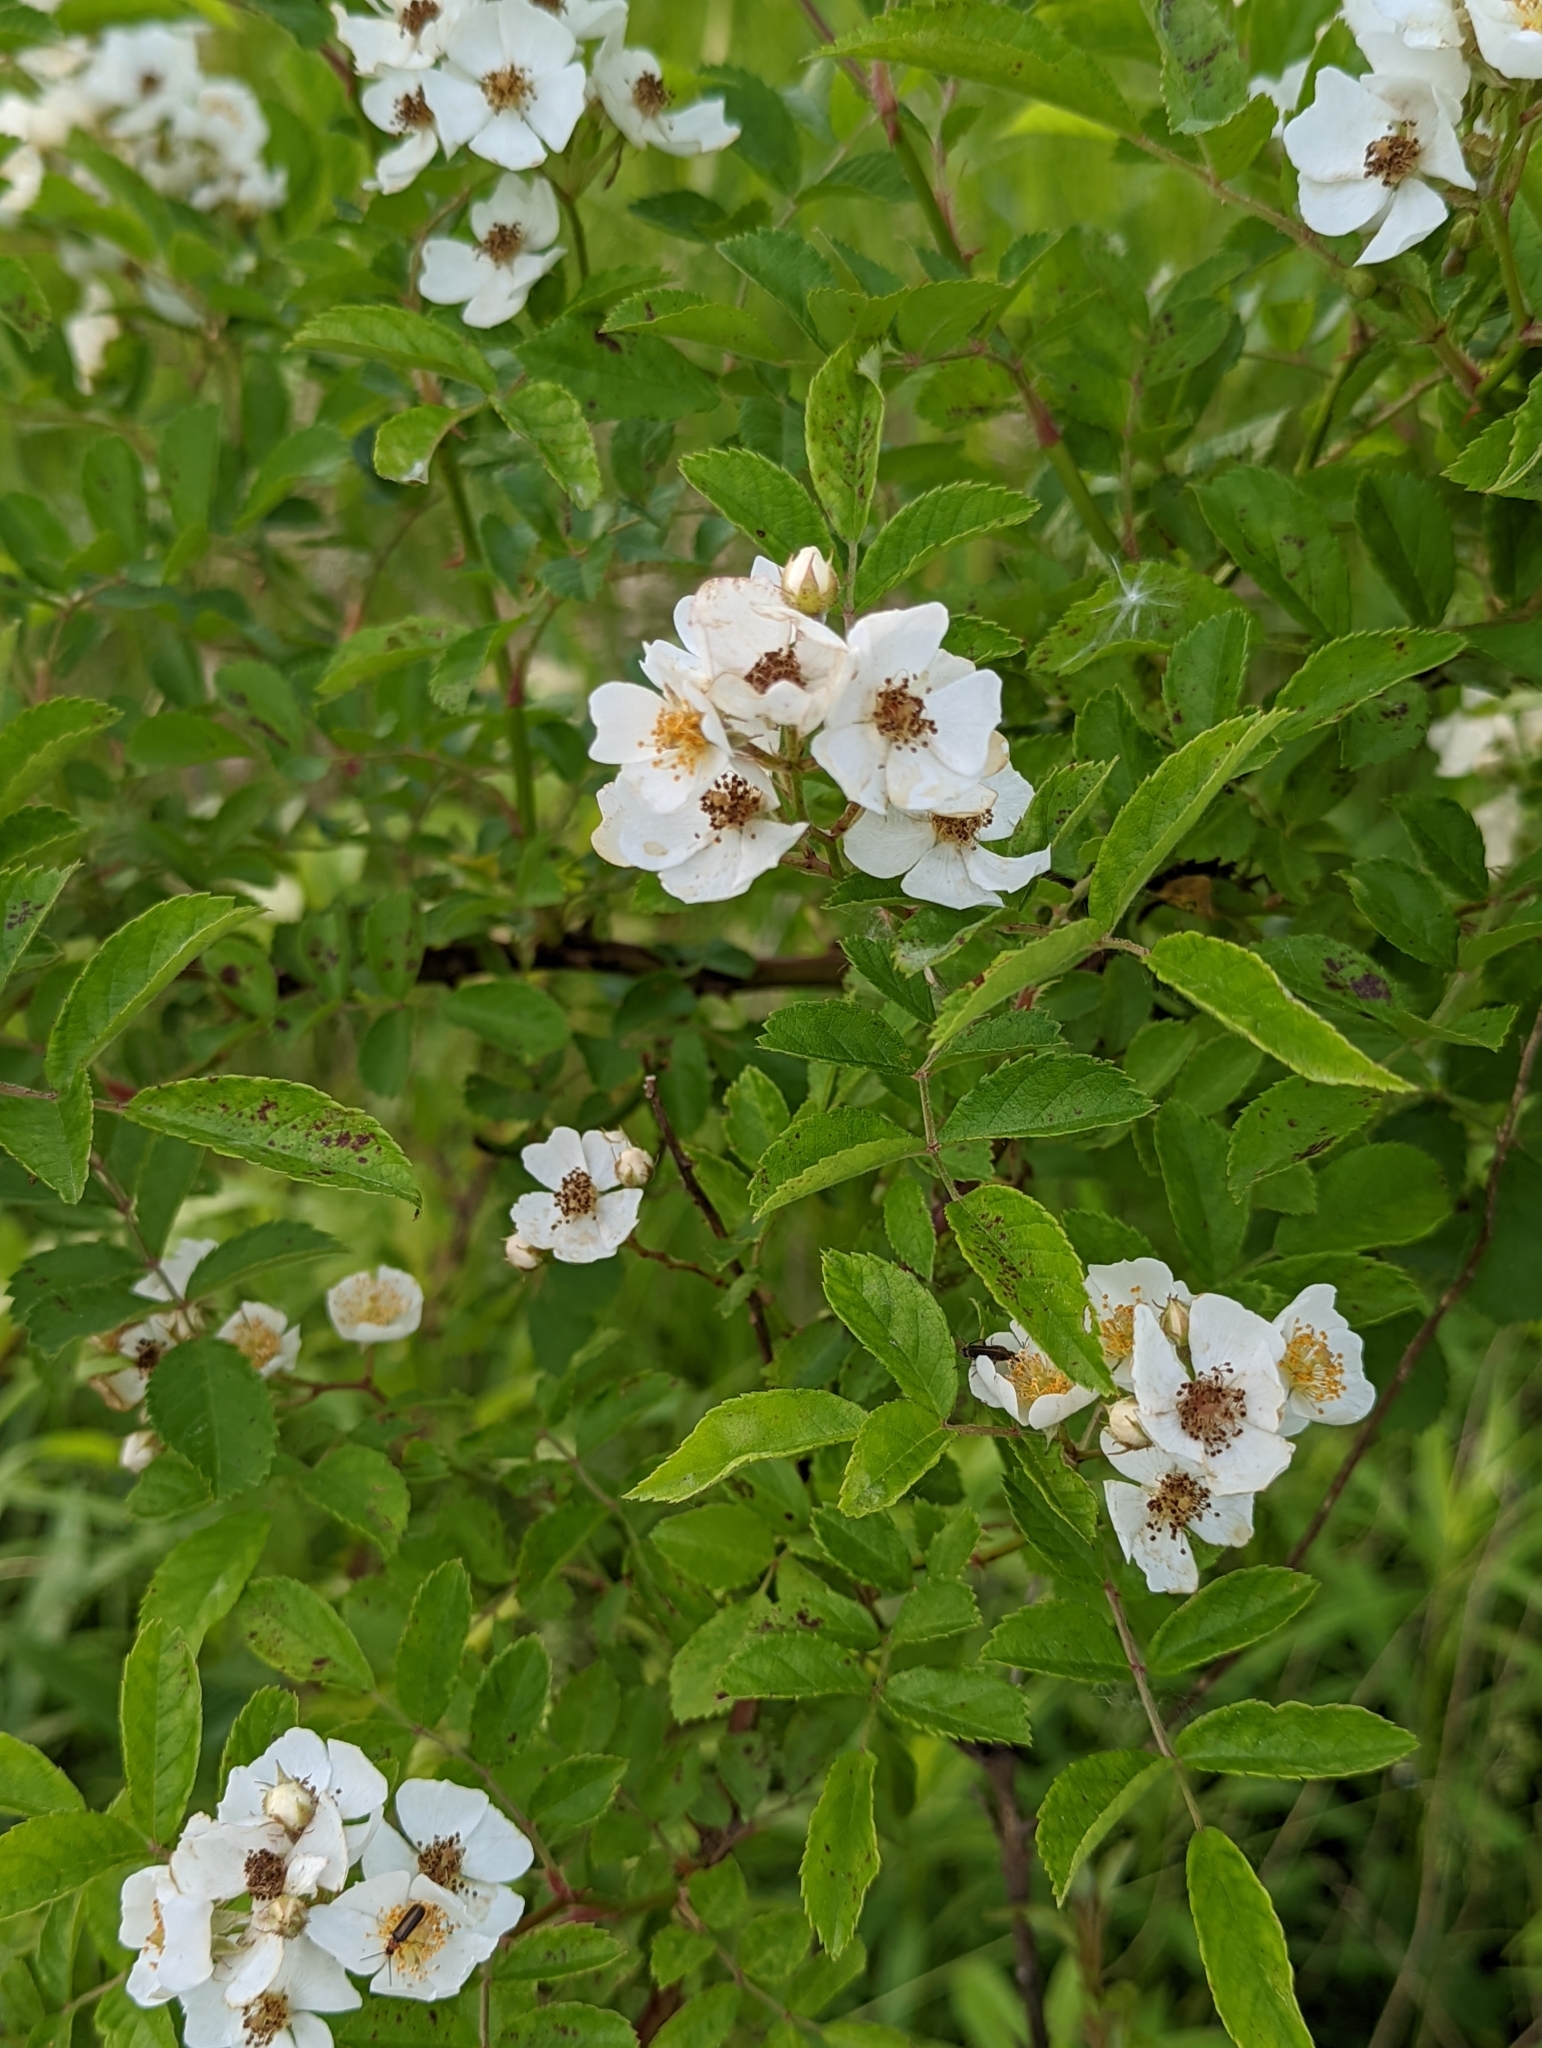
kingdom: Plantae
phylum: Tracheophyta
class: Magnoliopsida
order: Rosales
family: Rosaceae
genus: Rosa
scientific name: Rosa multiflora
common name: Multiflora rose
